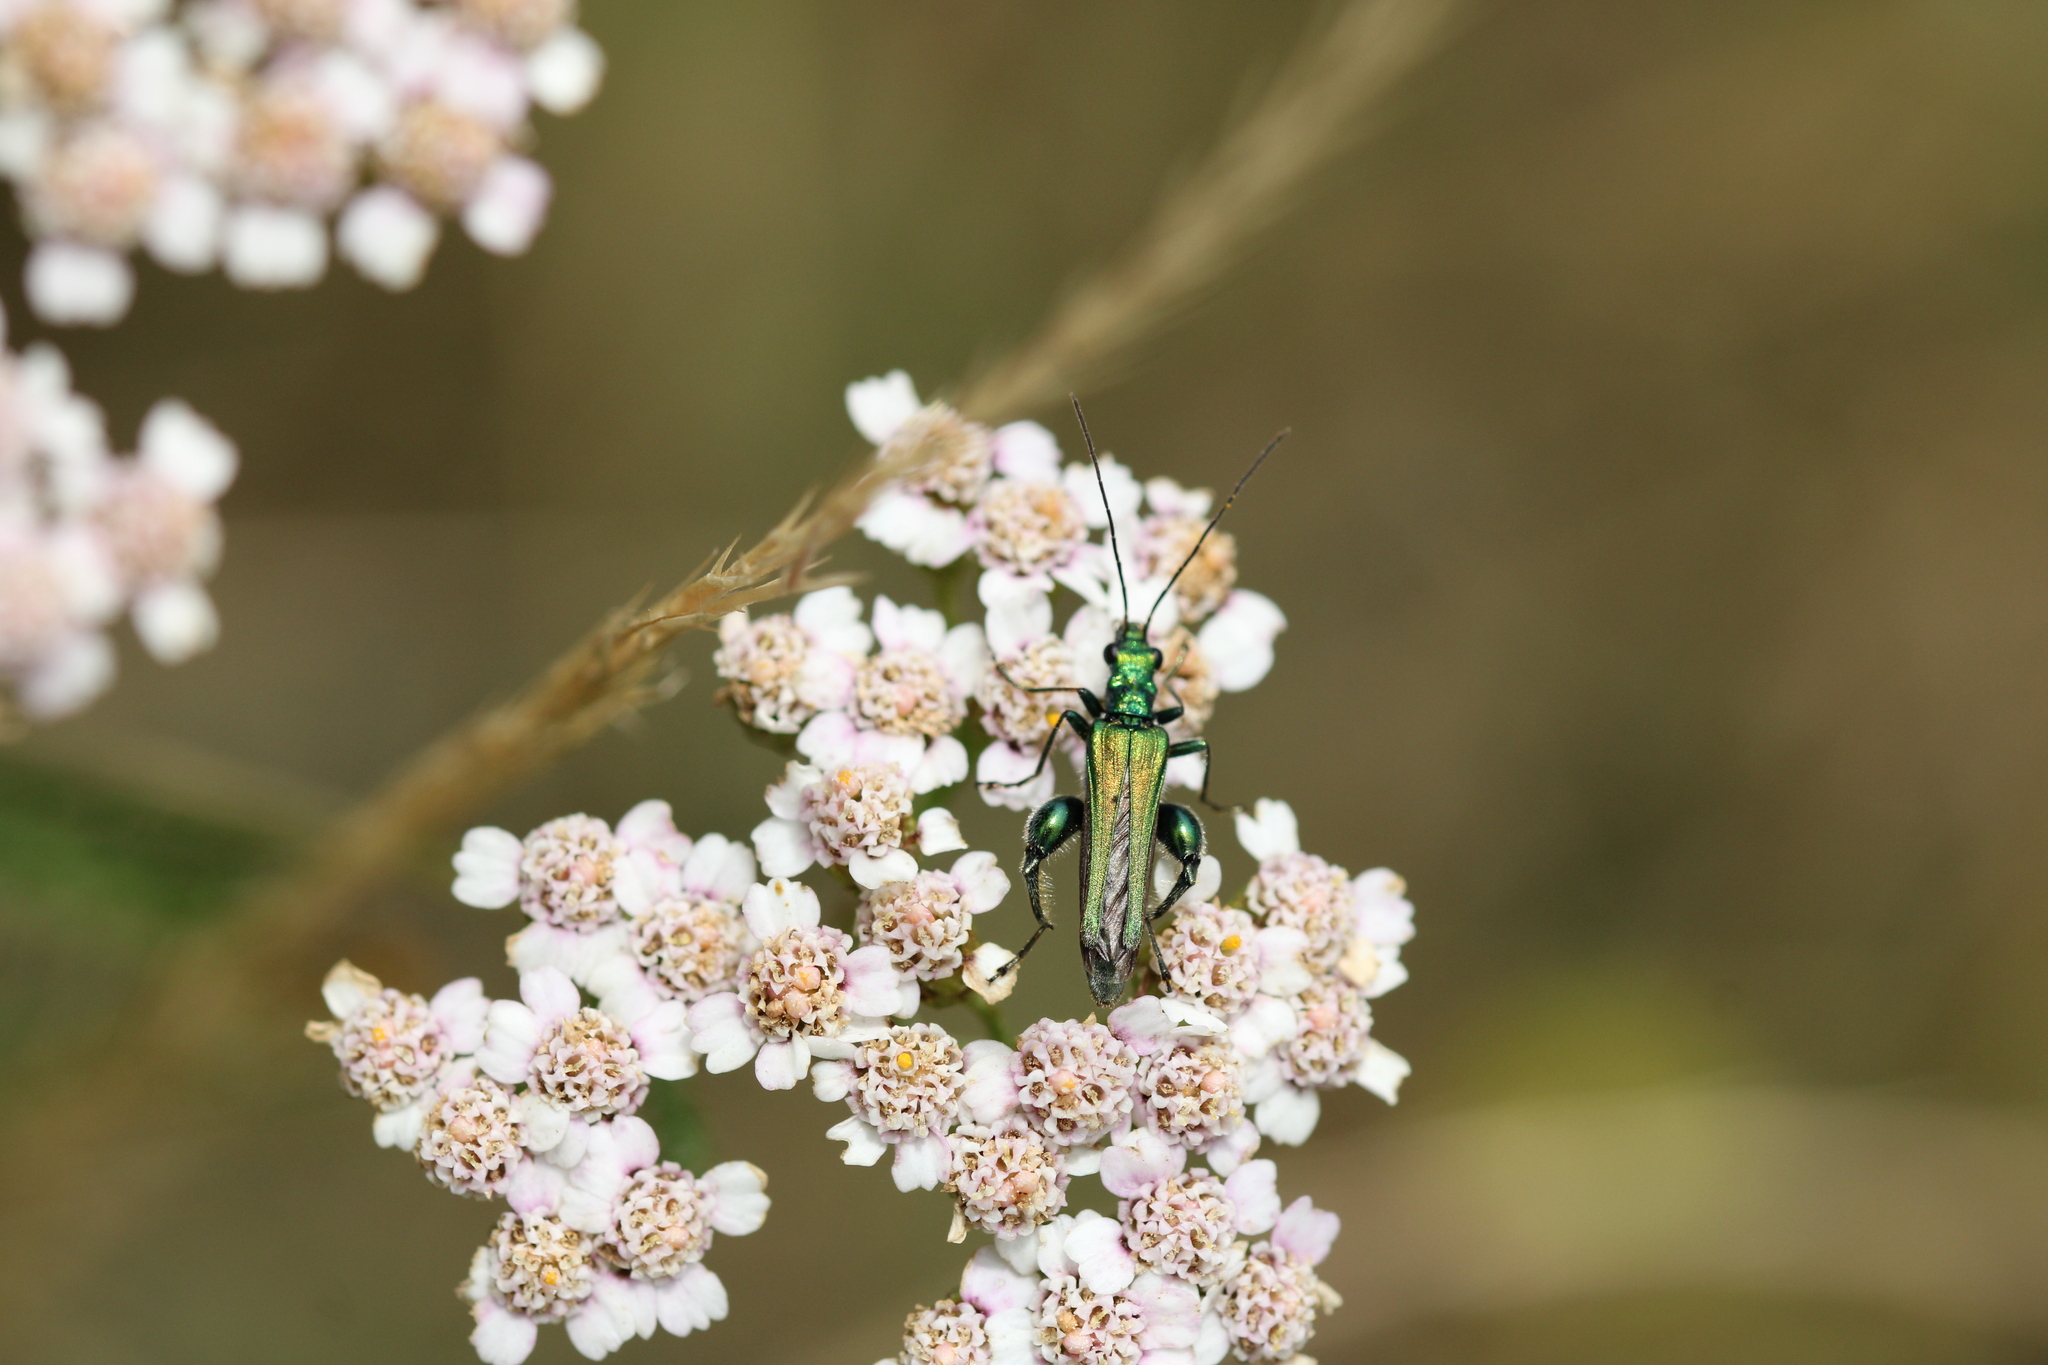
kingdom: Animalia
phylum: Arthropoda
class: Insecta
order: Coleoptera
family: Oedemeridae
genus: Oedemera
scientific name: Oedemera nobilis
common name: Swollen-thighed beetle
